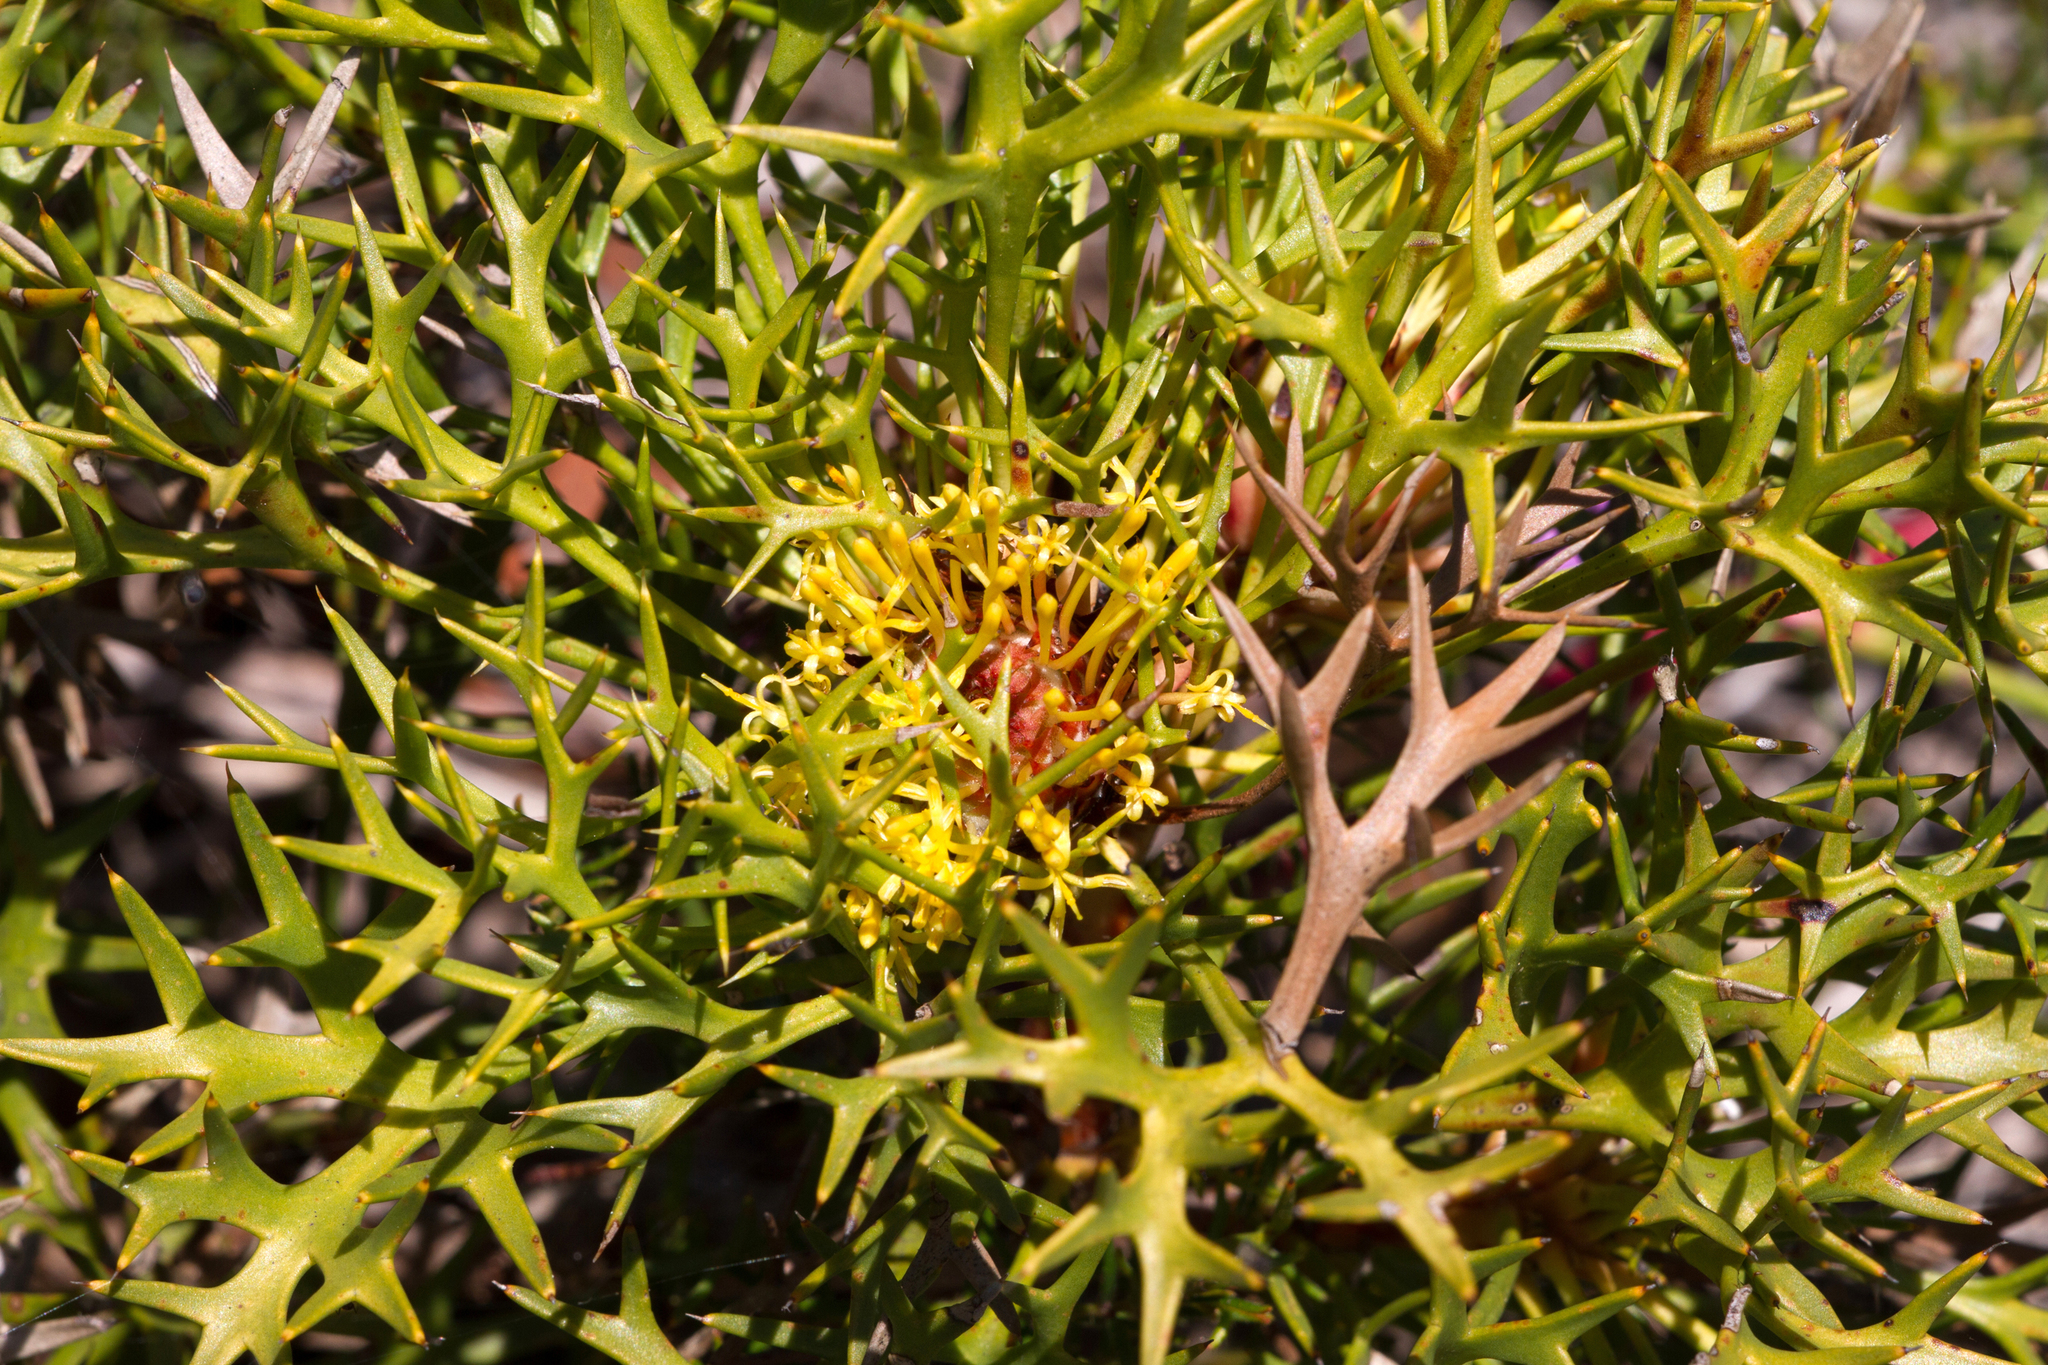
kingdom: Plantae
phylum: Tracheophyta
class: Magnoliopsida
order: Proteales
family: Proteaceae
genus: Isopogon
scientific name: Isopogon ceratophyllus
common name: Horny cone-bush
